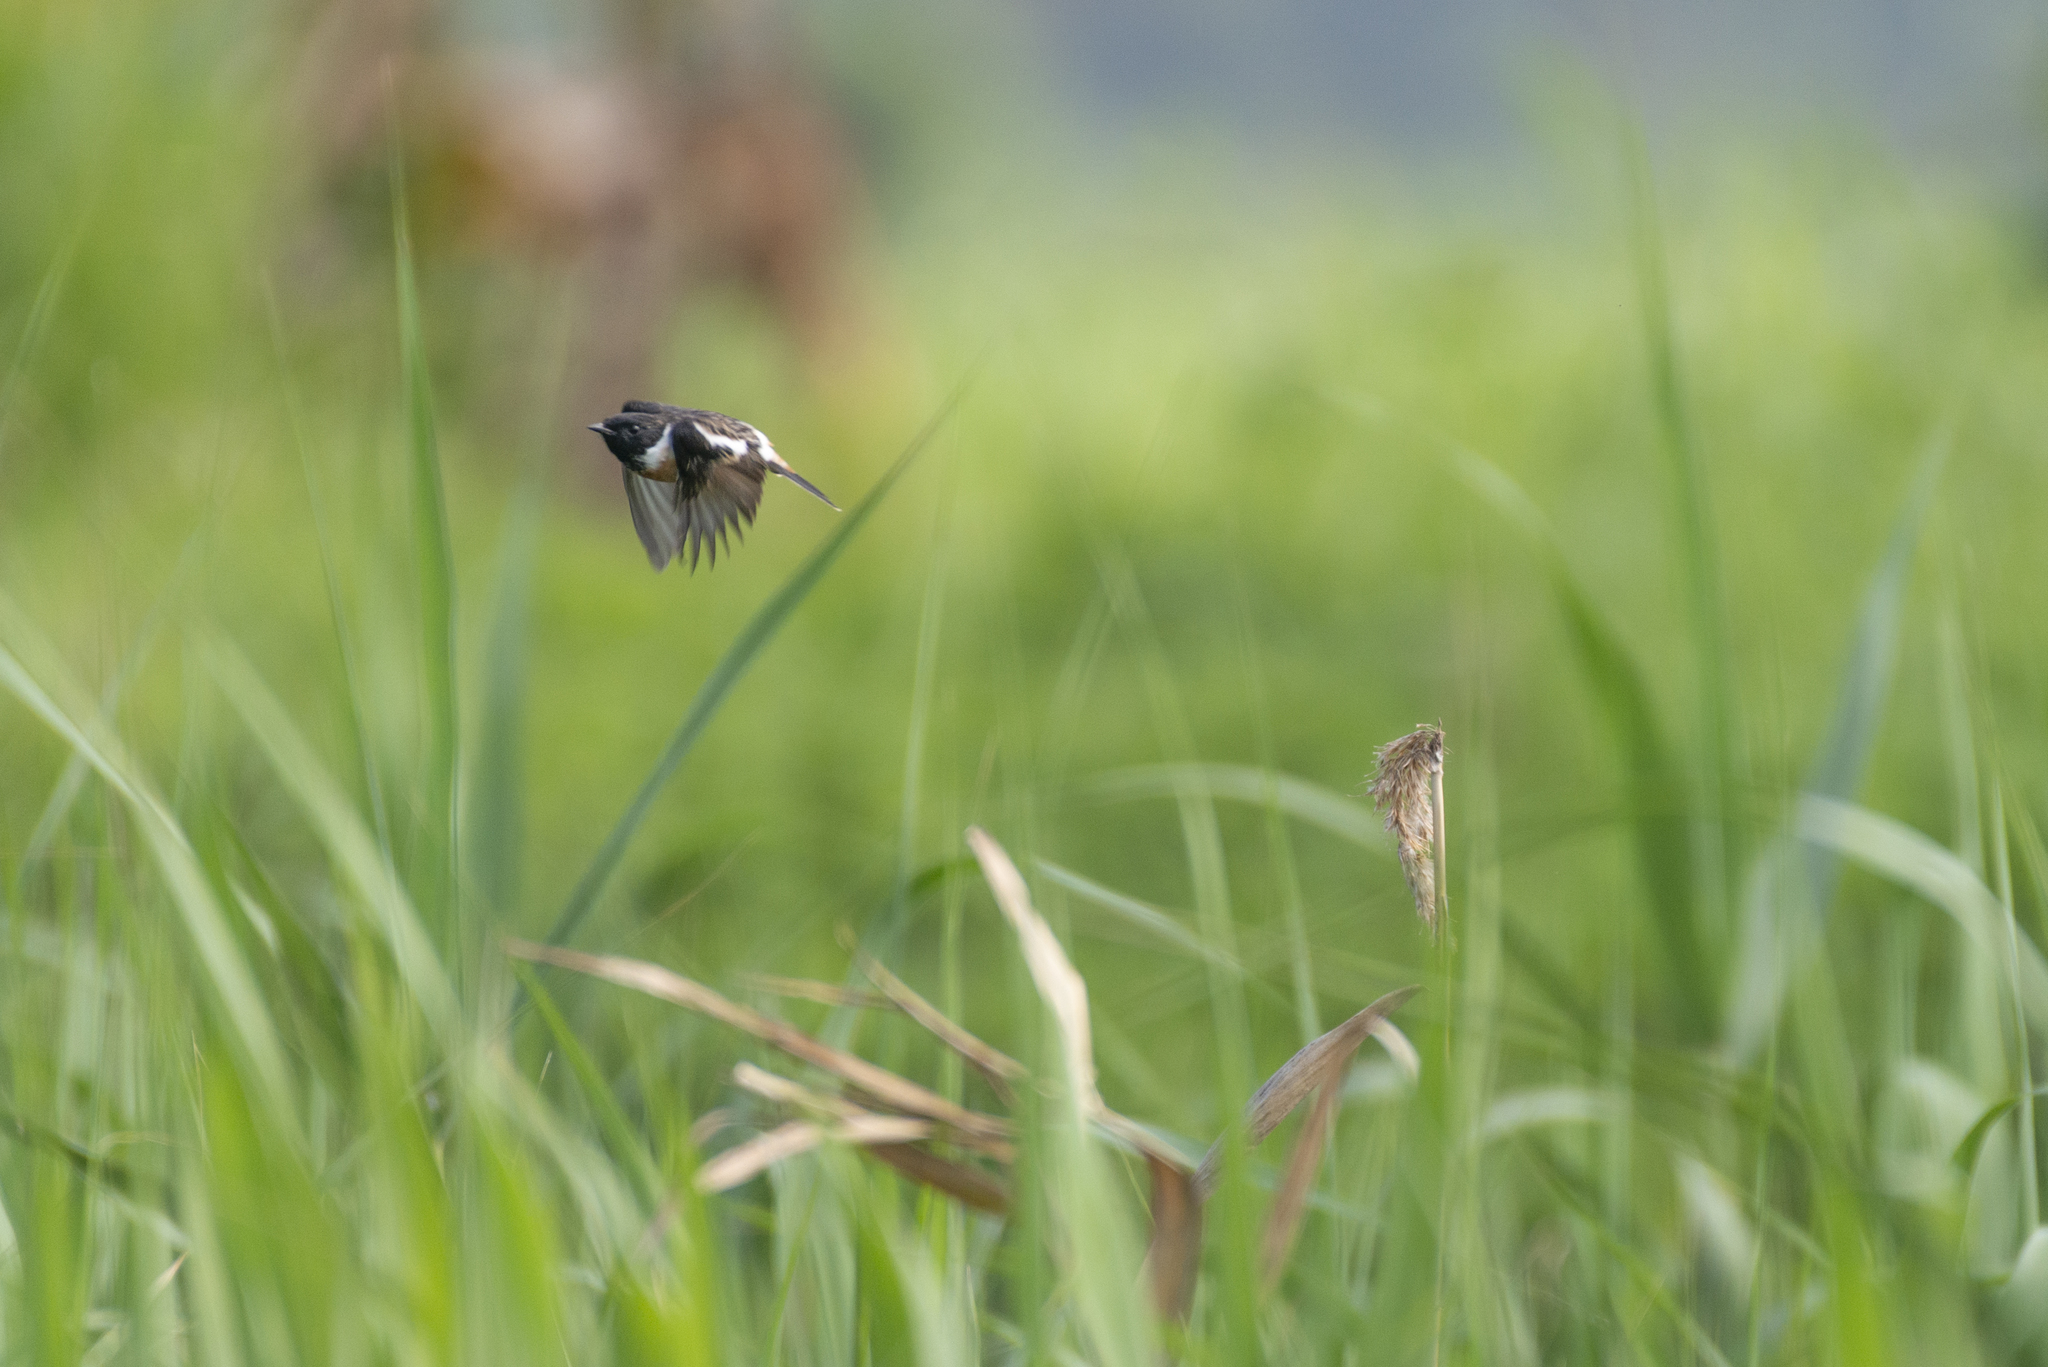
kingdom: Animalia
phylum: Chordata
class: Aves
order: Passeriformes
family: Muscicapidae
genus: Saxicola
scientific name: Saxicola stejnegeri
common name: Stejneger's stonechat
